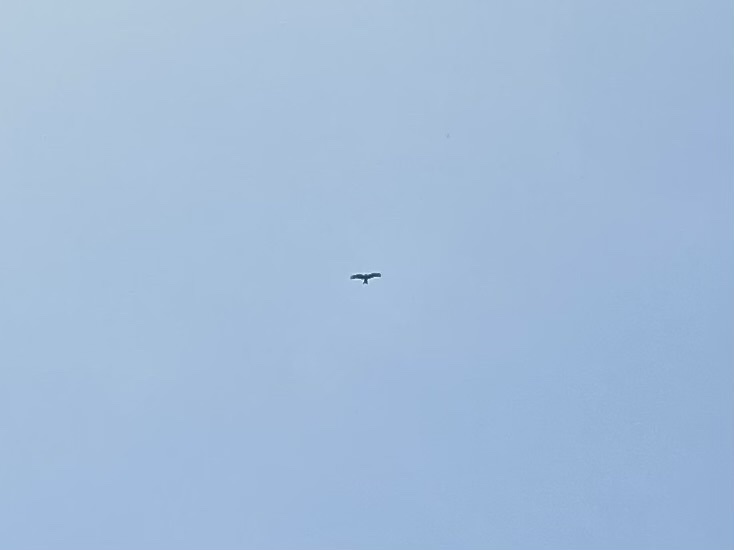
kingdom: Animalia
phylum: Chordata
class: Aves
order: Accipitriformes
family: Accipitridae
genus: Milvus
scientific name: Milvus migrans
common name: Black kite
